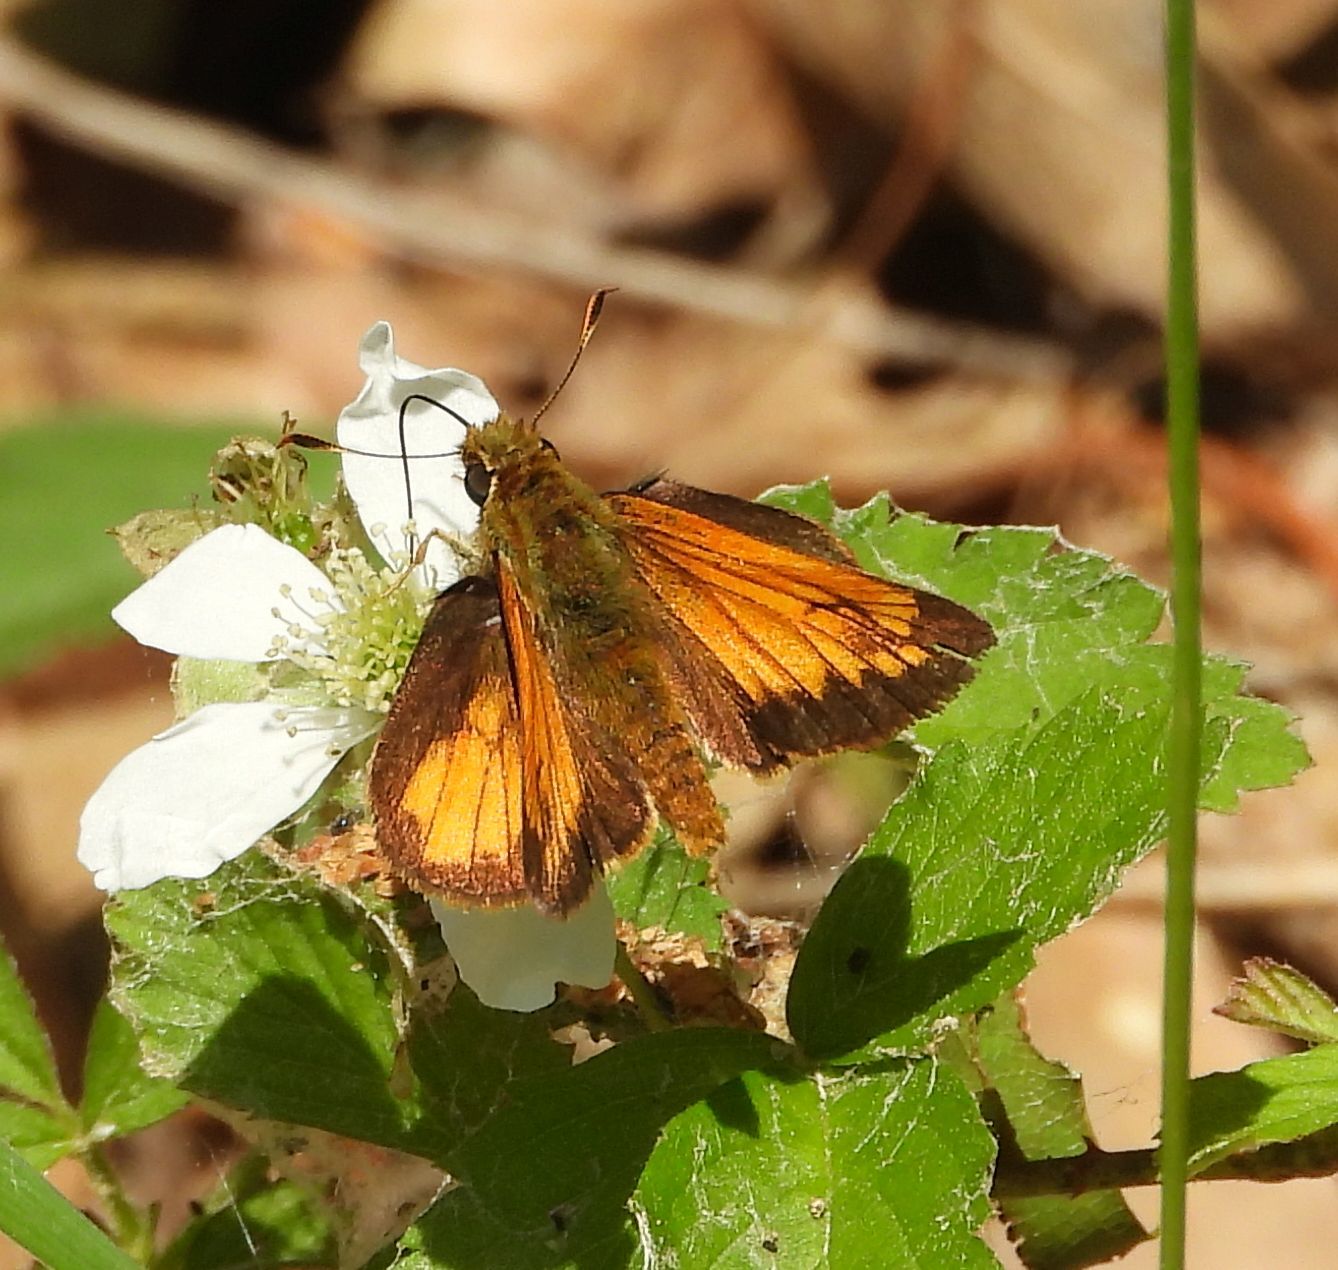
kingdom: Animalia
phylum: Arthropoda
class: Insecta
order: Lepidoptera
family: Hesperiidae
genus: Lon
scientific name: Lon hobomok
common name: Hobomok skipper
